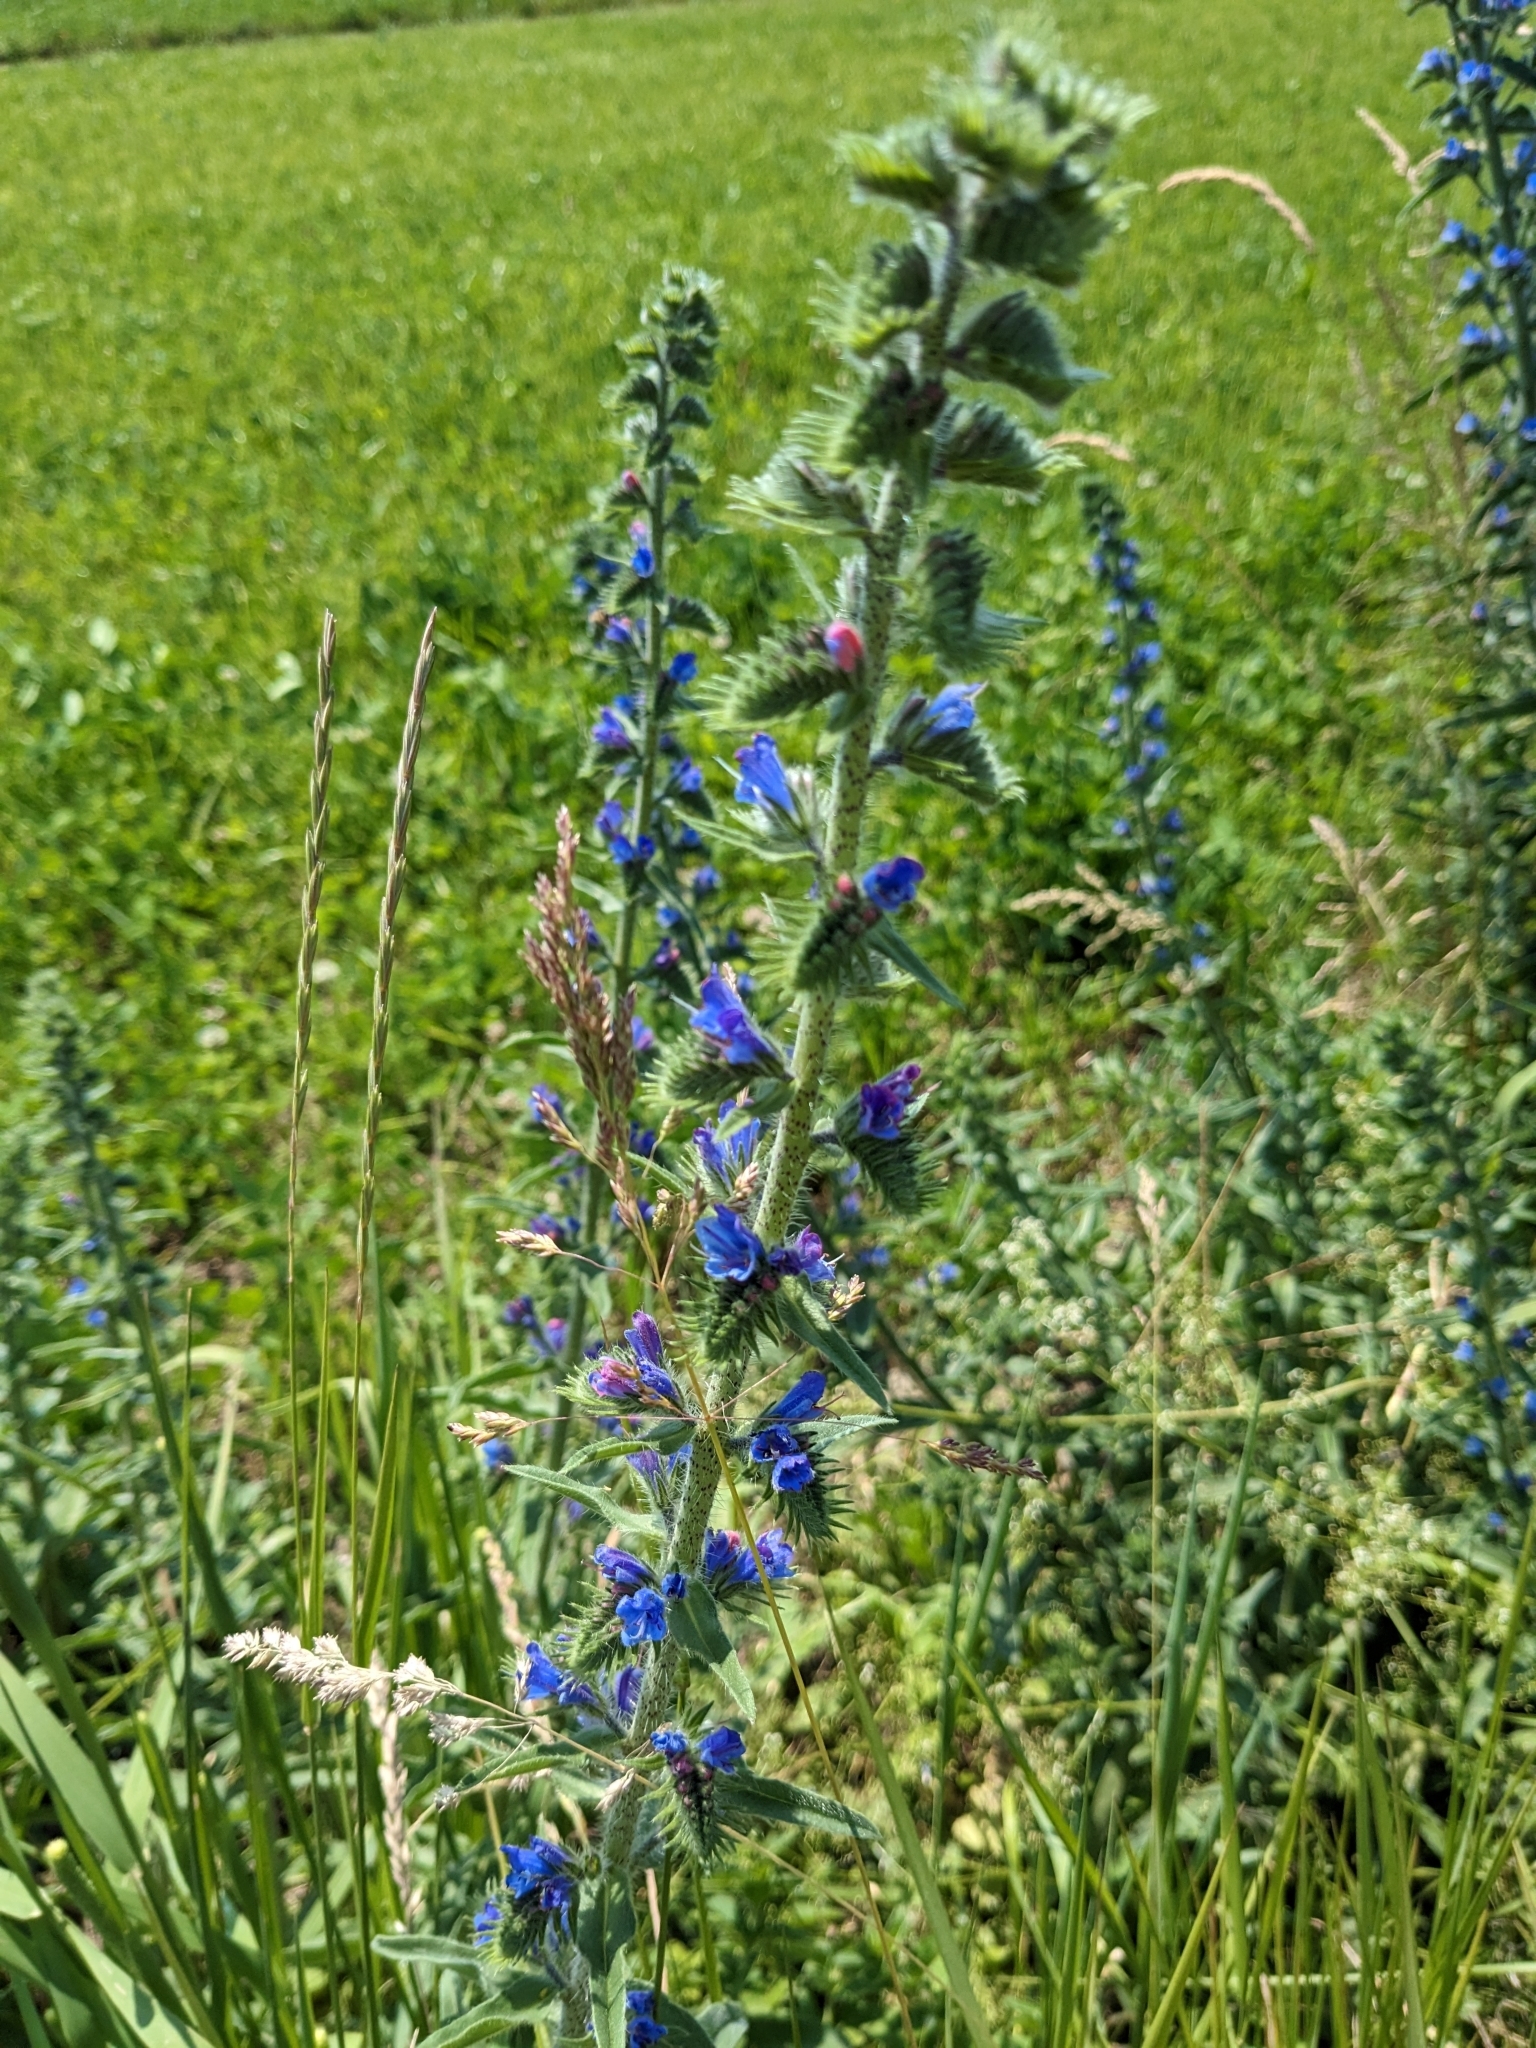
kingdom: Plantae
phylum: Tracheophyta
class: Magnoliopsida
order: Boraginales
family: Boraginaceae
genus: Echium
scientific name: Echium vulgare
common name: Common viper's bugloss
